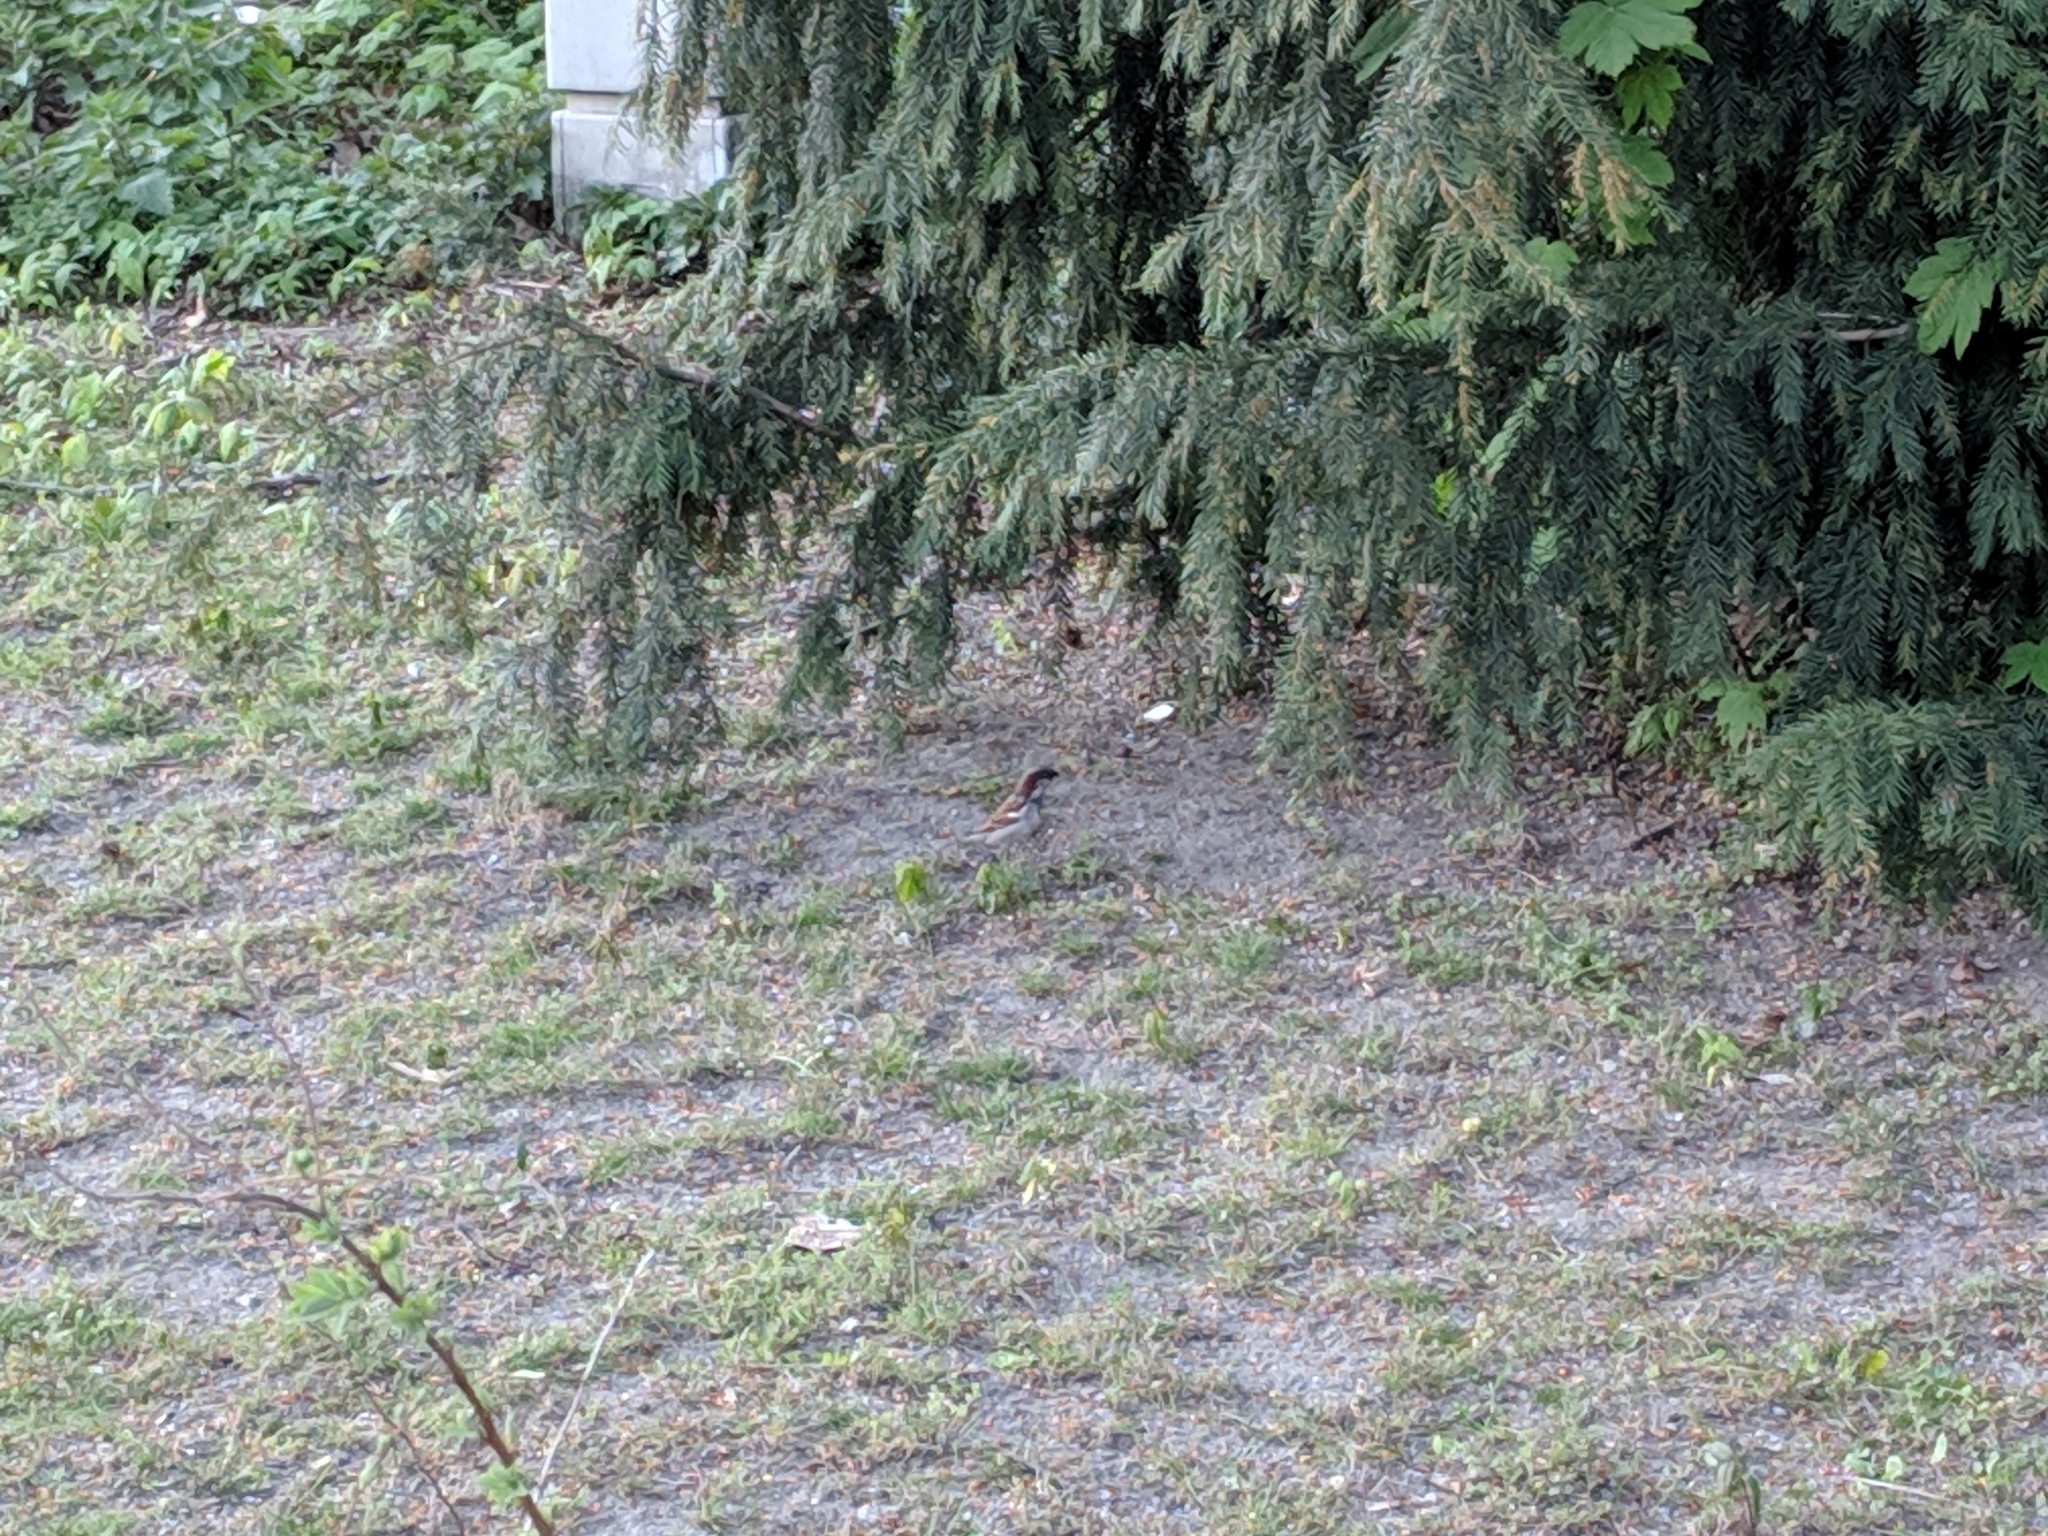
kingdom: Animalia
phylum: Chordata
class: Aves
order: Passeriformes
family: Passeridae
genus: Passer
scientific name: Passer domesticus
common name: House sparrow
